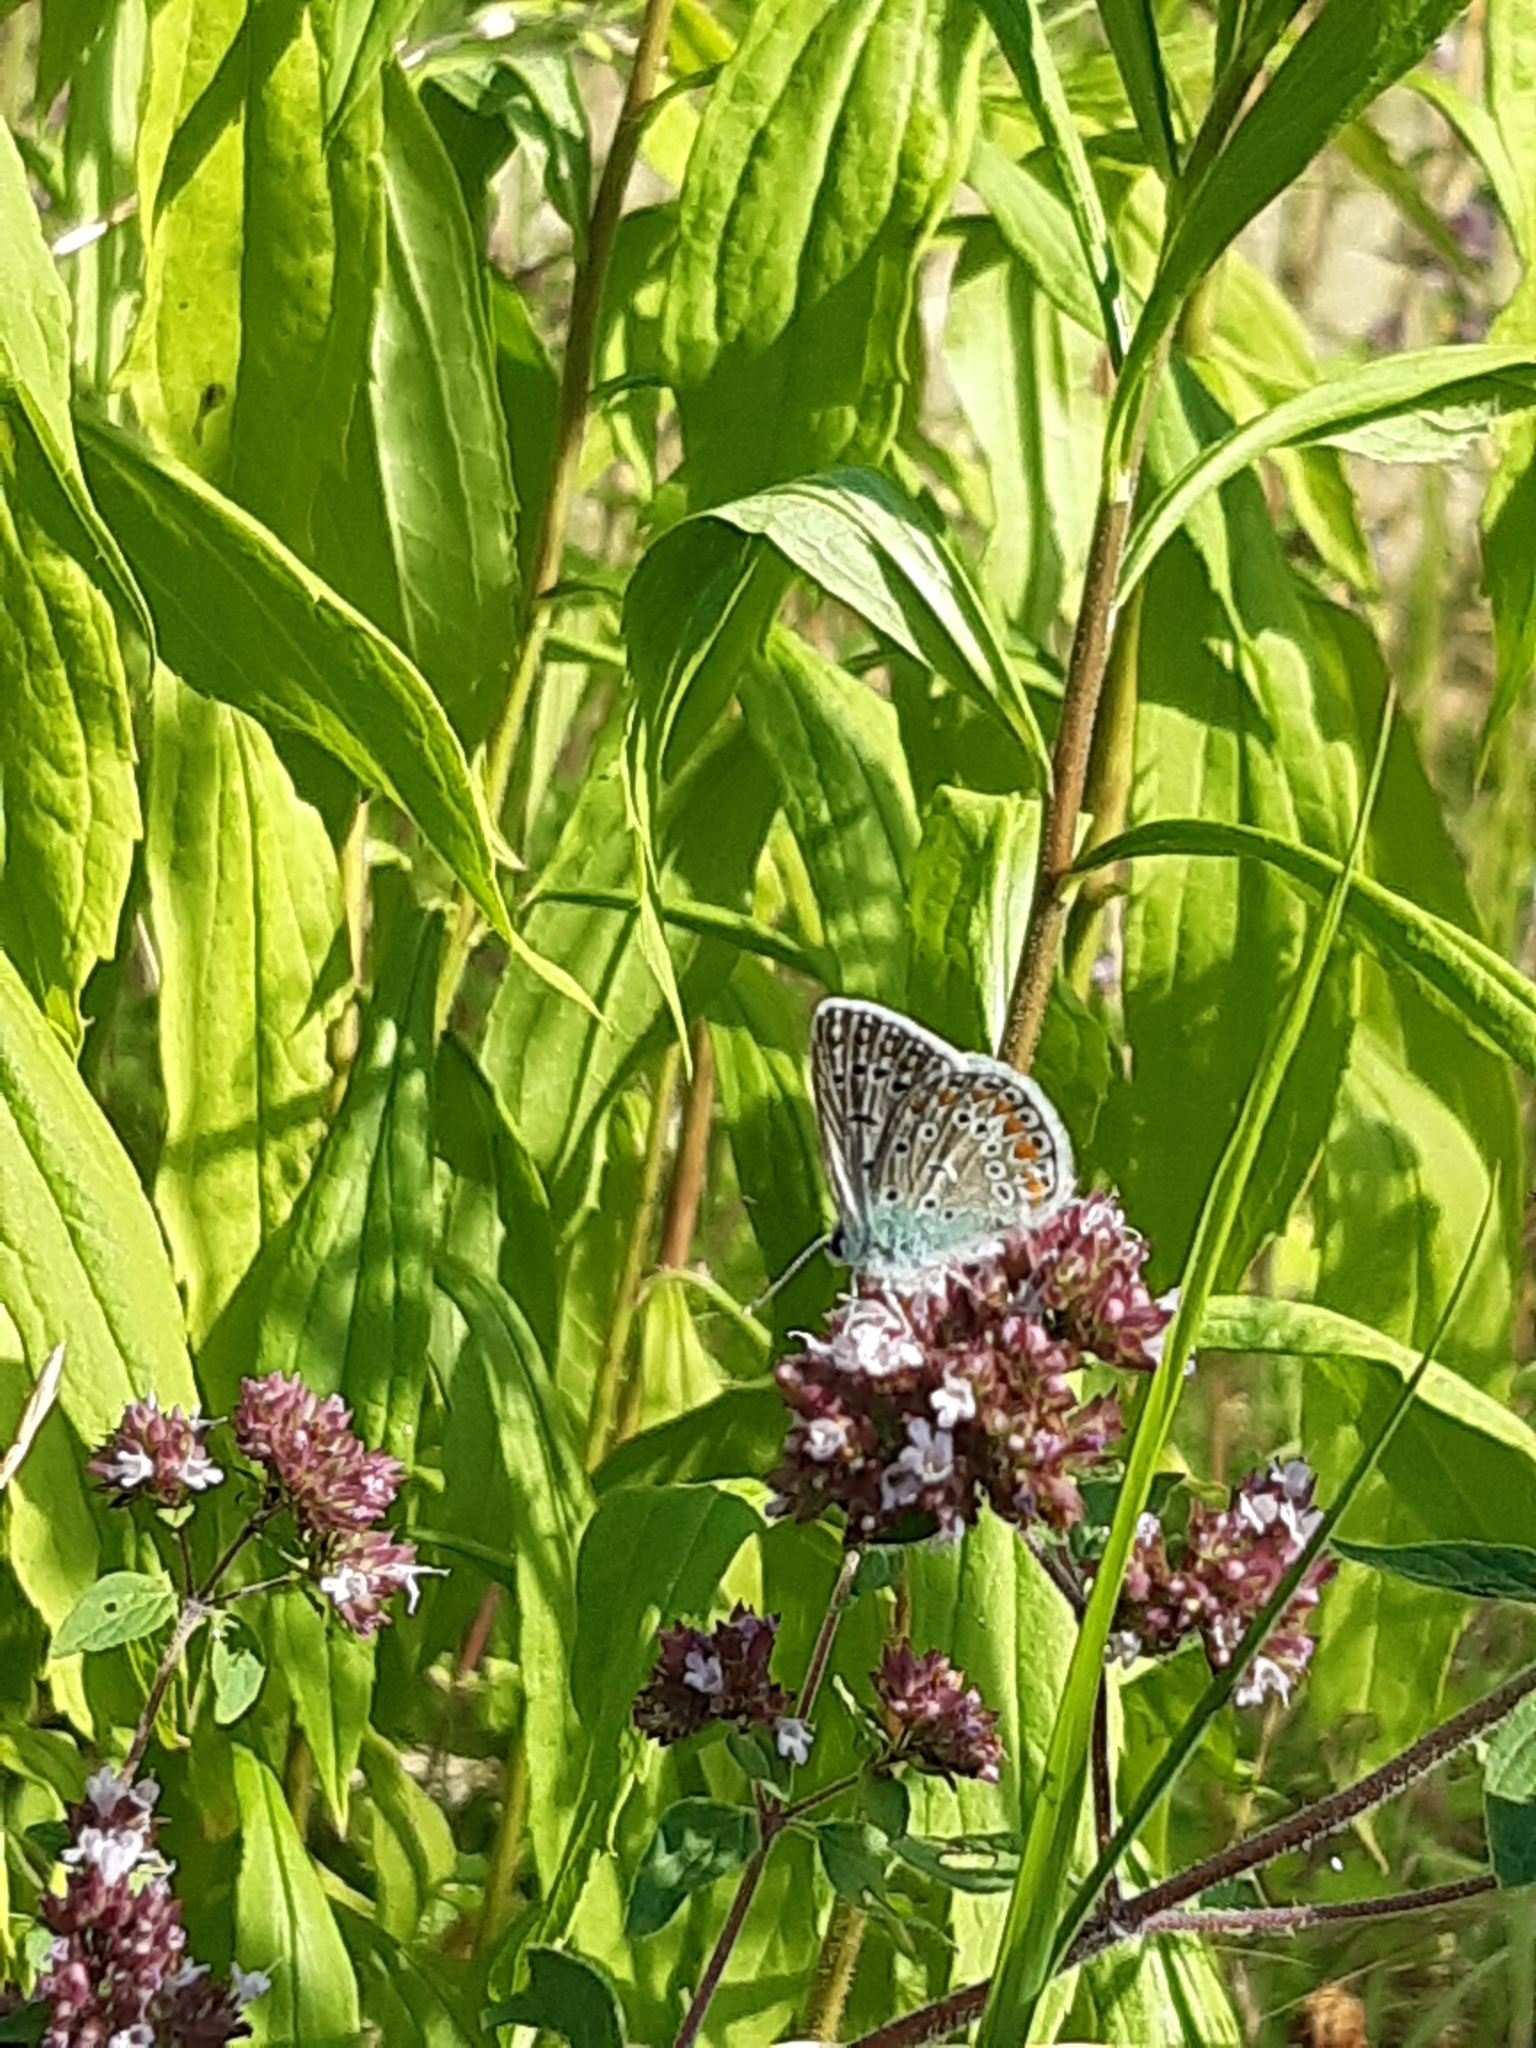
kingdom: Animalia
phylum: Arthropoda
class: Insecta
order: Lepidoptera
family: Lycaenidae
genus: Polyommatus
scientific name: Polyommatus icarus
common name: Common blue
